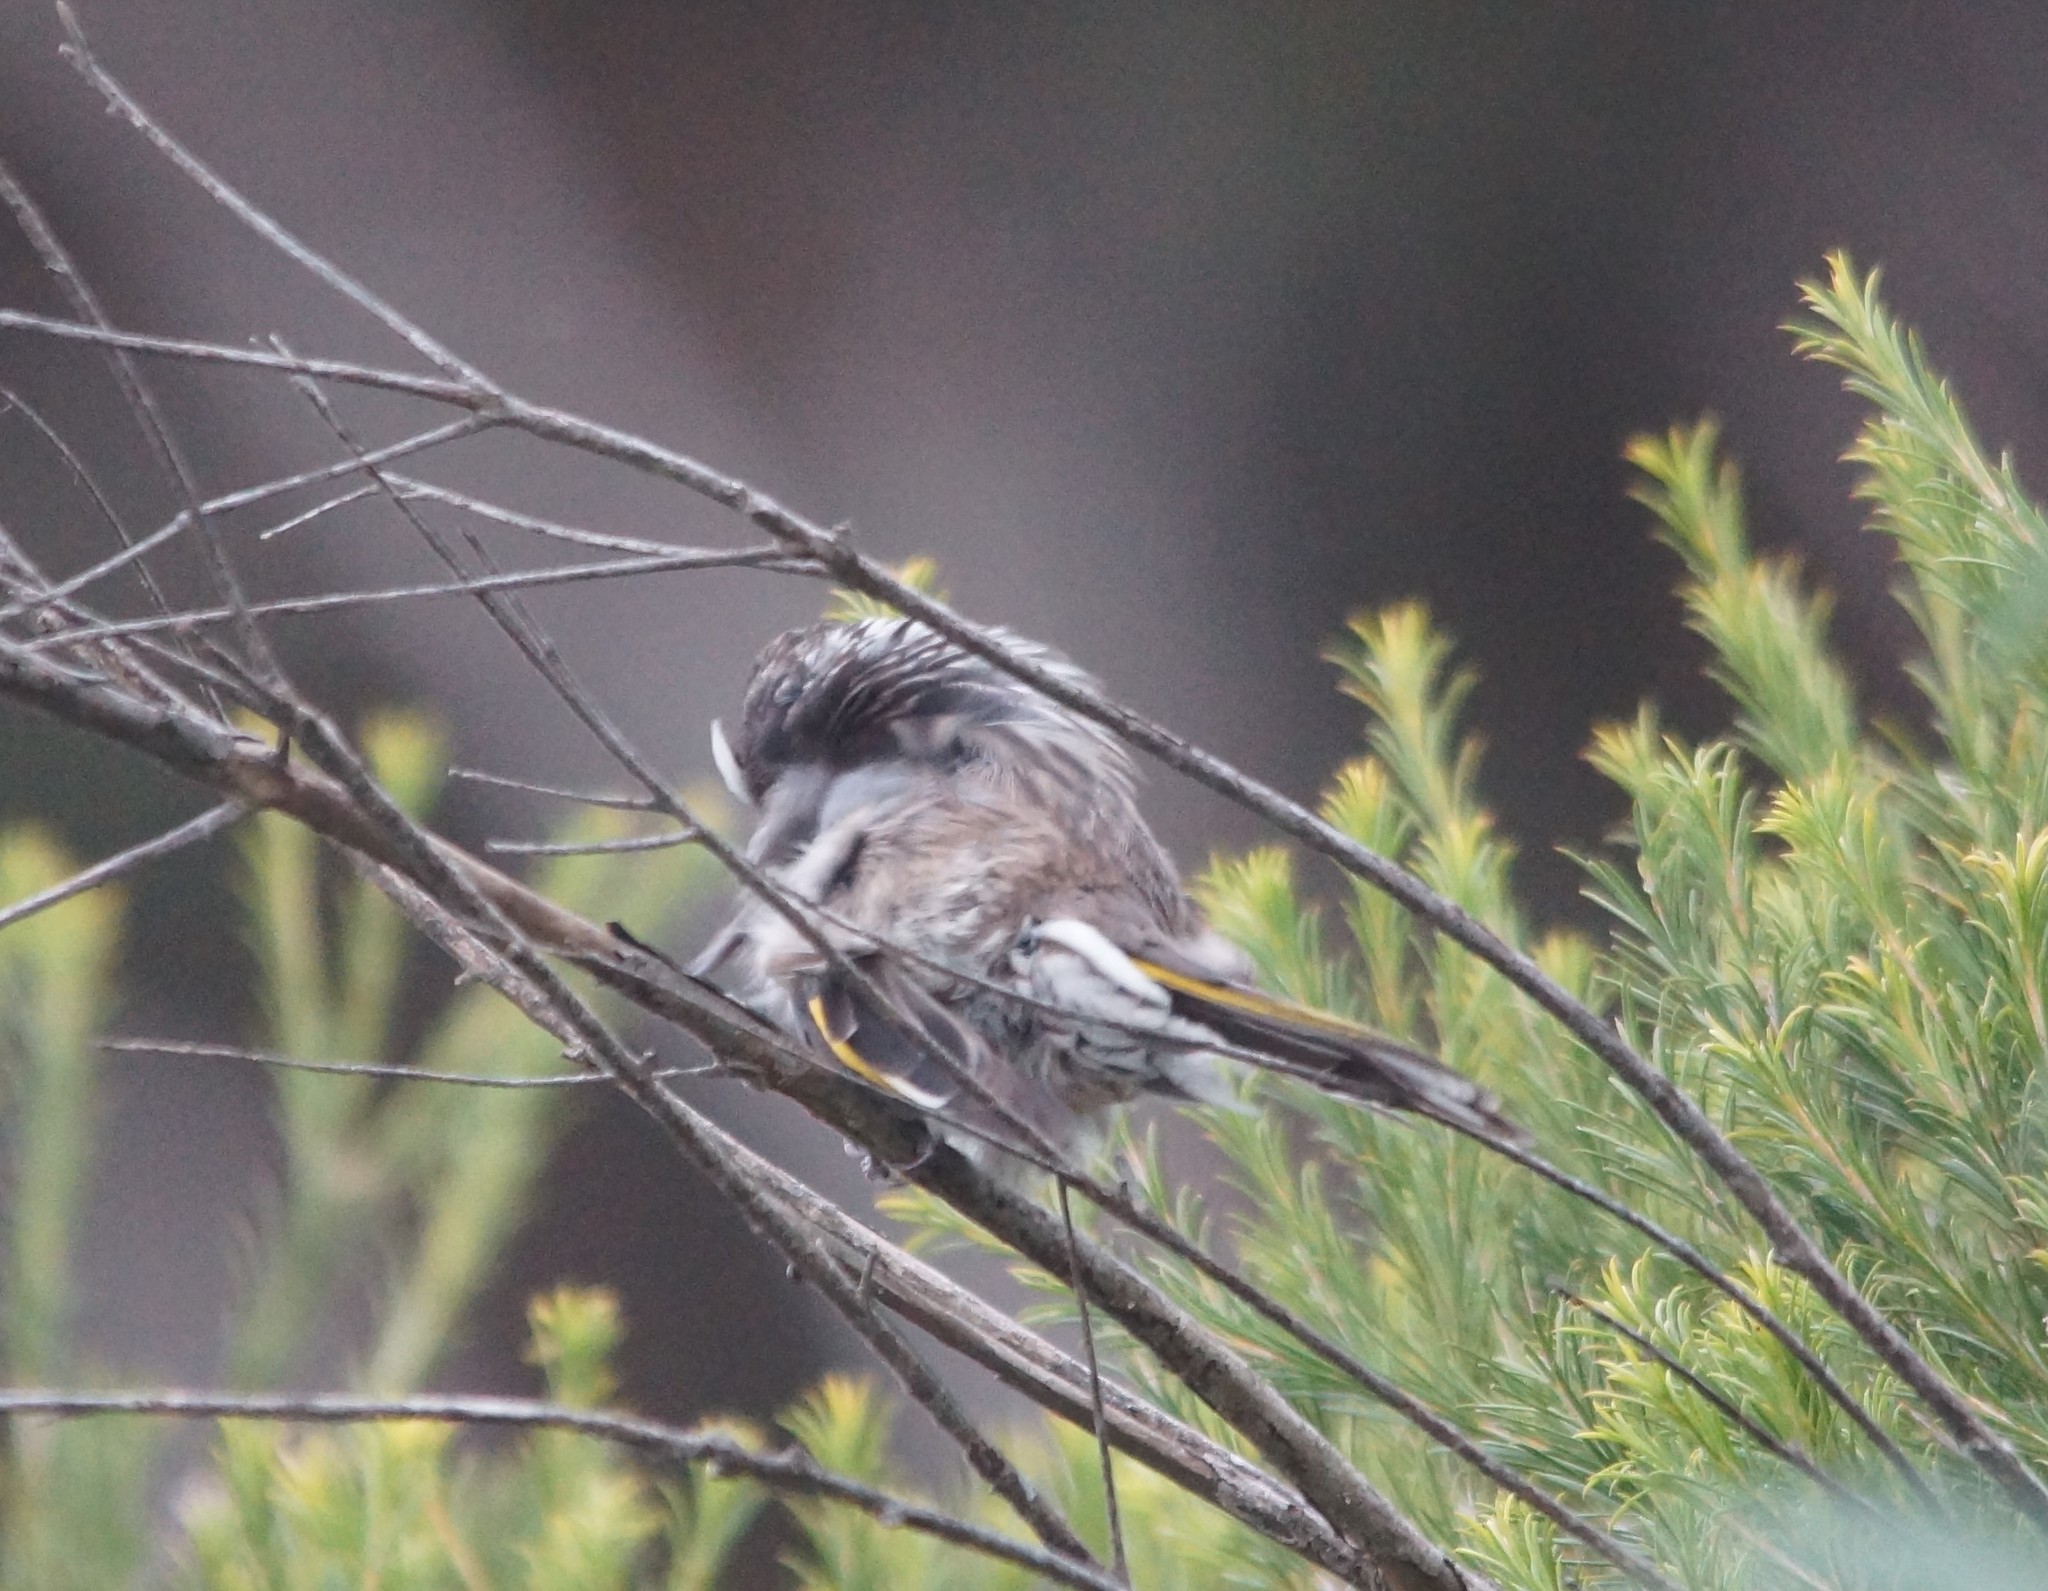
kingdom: Animalia
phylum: Chordata
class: Aves
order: Passeriformes
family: Meliphagidae
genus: Phylidonyris
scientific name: Phylidonyris novaehollandiae
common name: New holland honeyeater
